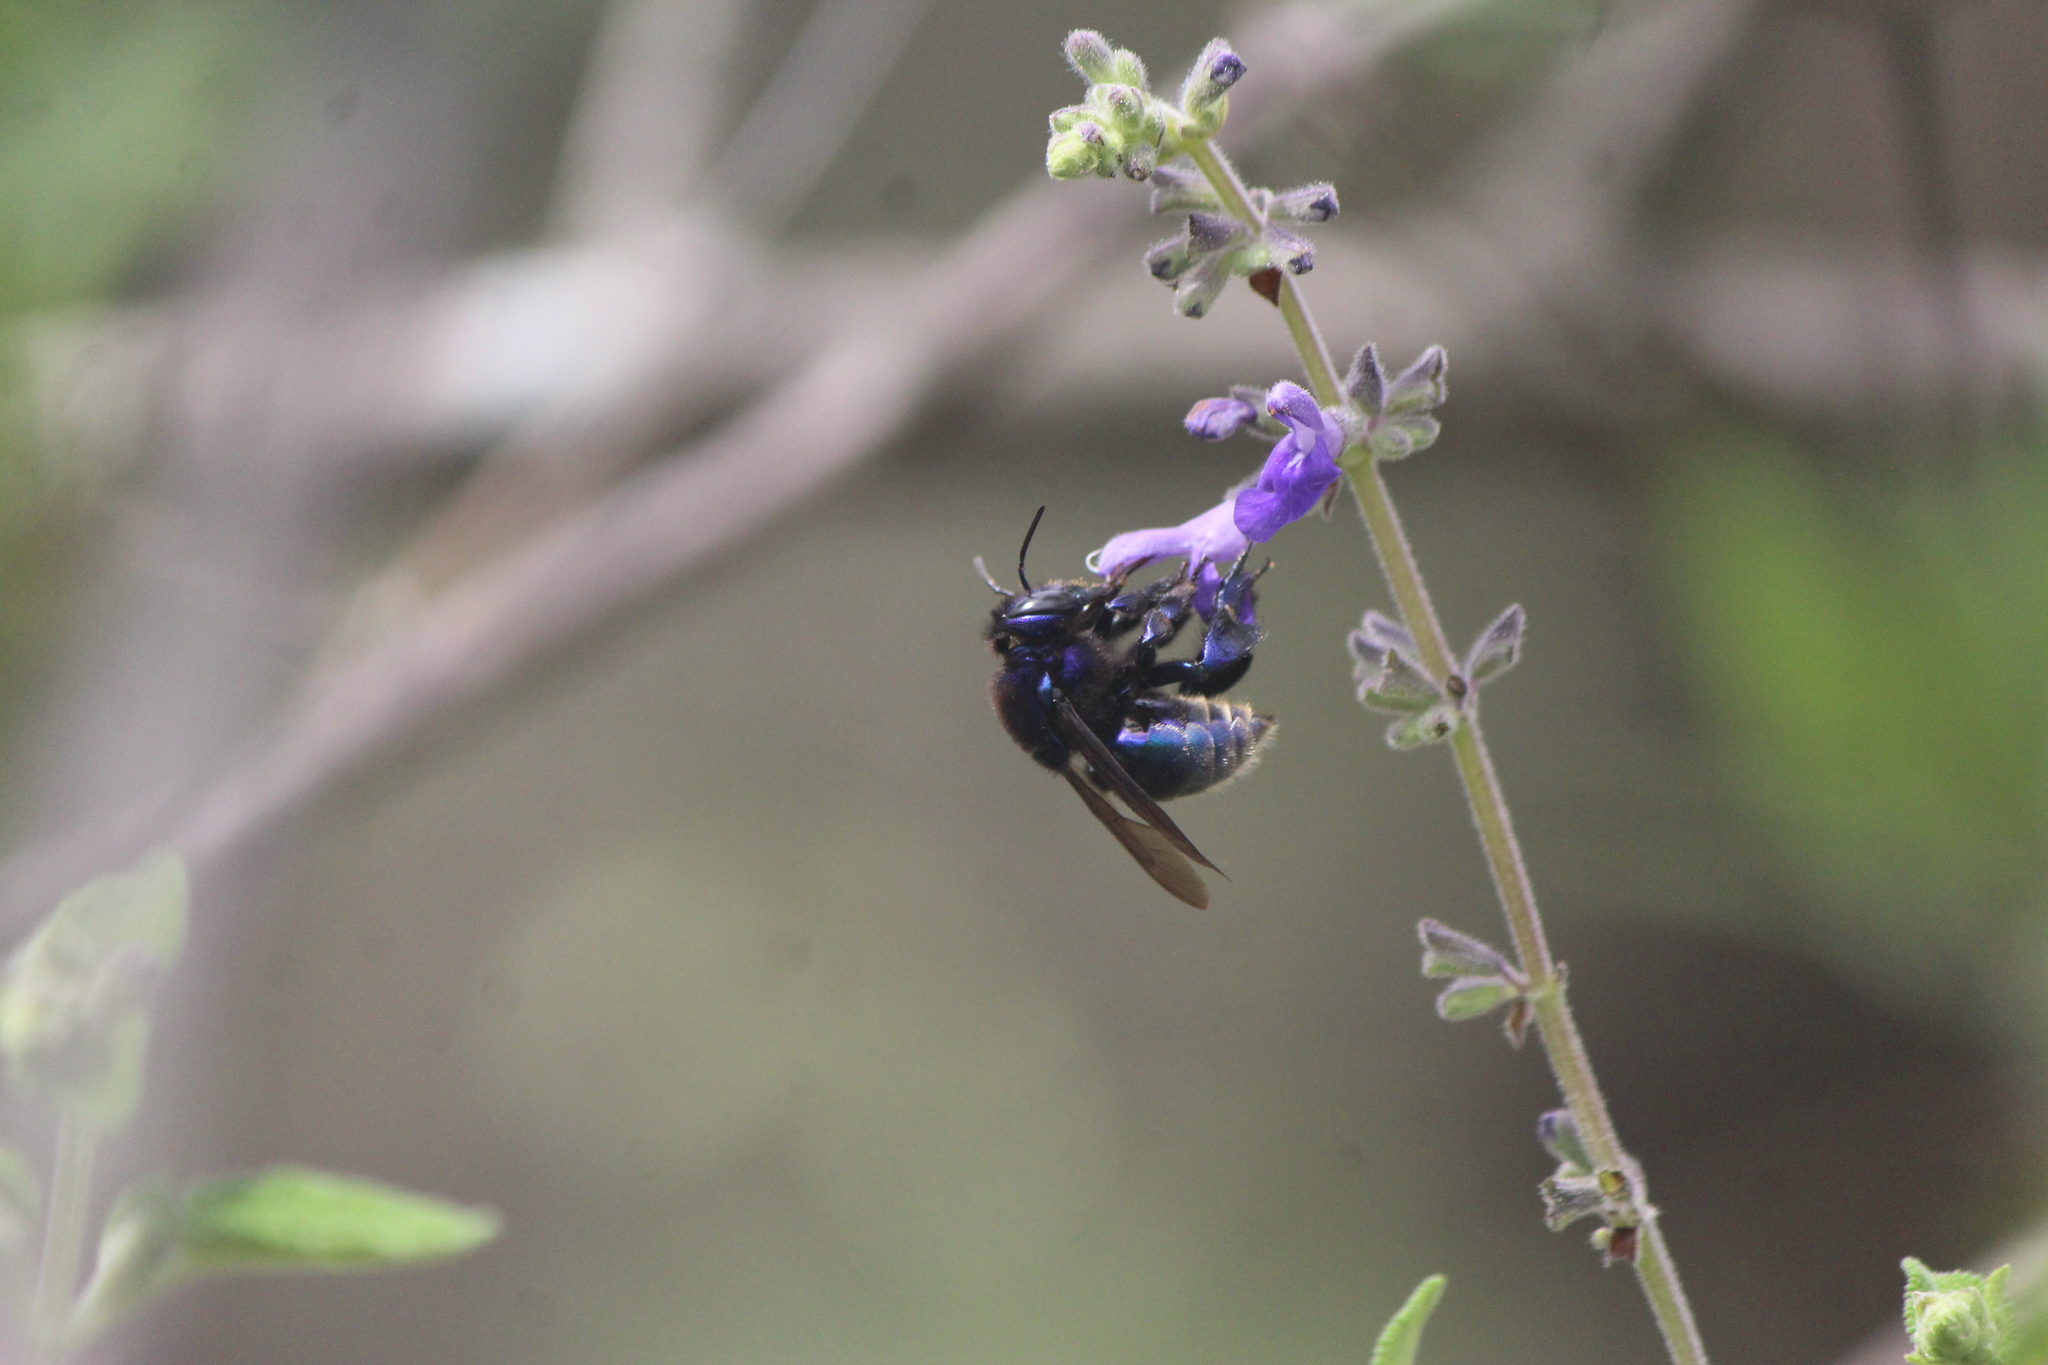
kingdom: Animalia
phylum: Arthropoda
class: Insecta
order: Hymenoptera
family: Apidae
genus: Eufriesea
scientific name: Eufriesea caerulescens
